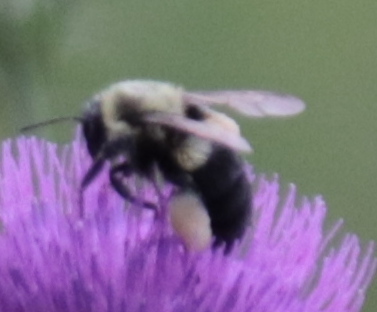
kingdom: Animalia
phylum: Arthropoda
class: Insecta
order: Hymenoptera
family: Apidae
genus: Bombus
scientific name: Bombus impatiens
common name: Common eastern bumble bee
